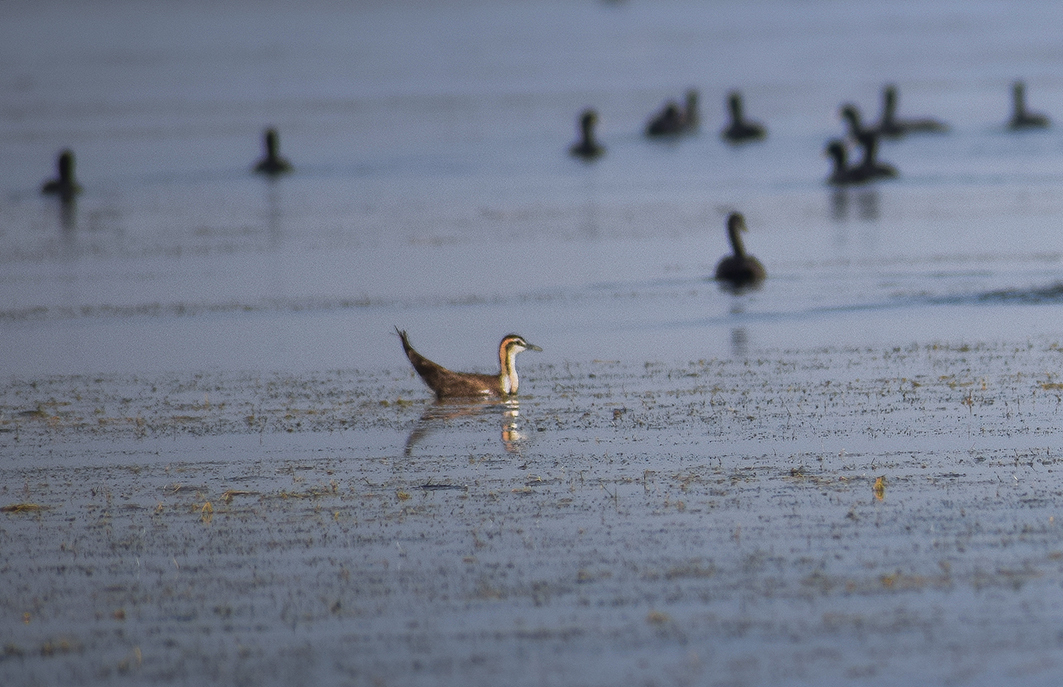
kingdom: Animalia
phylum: Chordata
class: Aves
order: Charadriiformes
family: Jacanidae
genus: Hydrophasianus
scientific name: Hydrophasianus chirurgus
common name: Pheasant-tailed jacana
